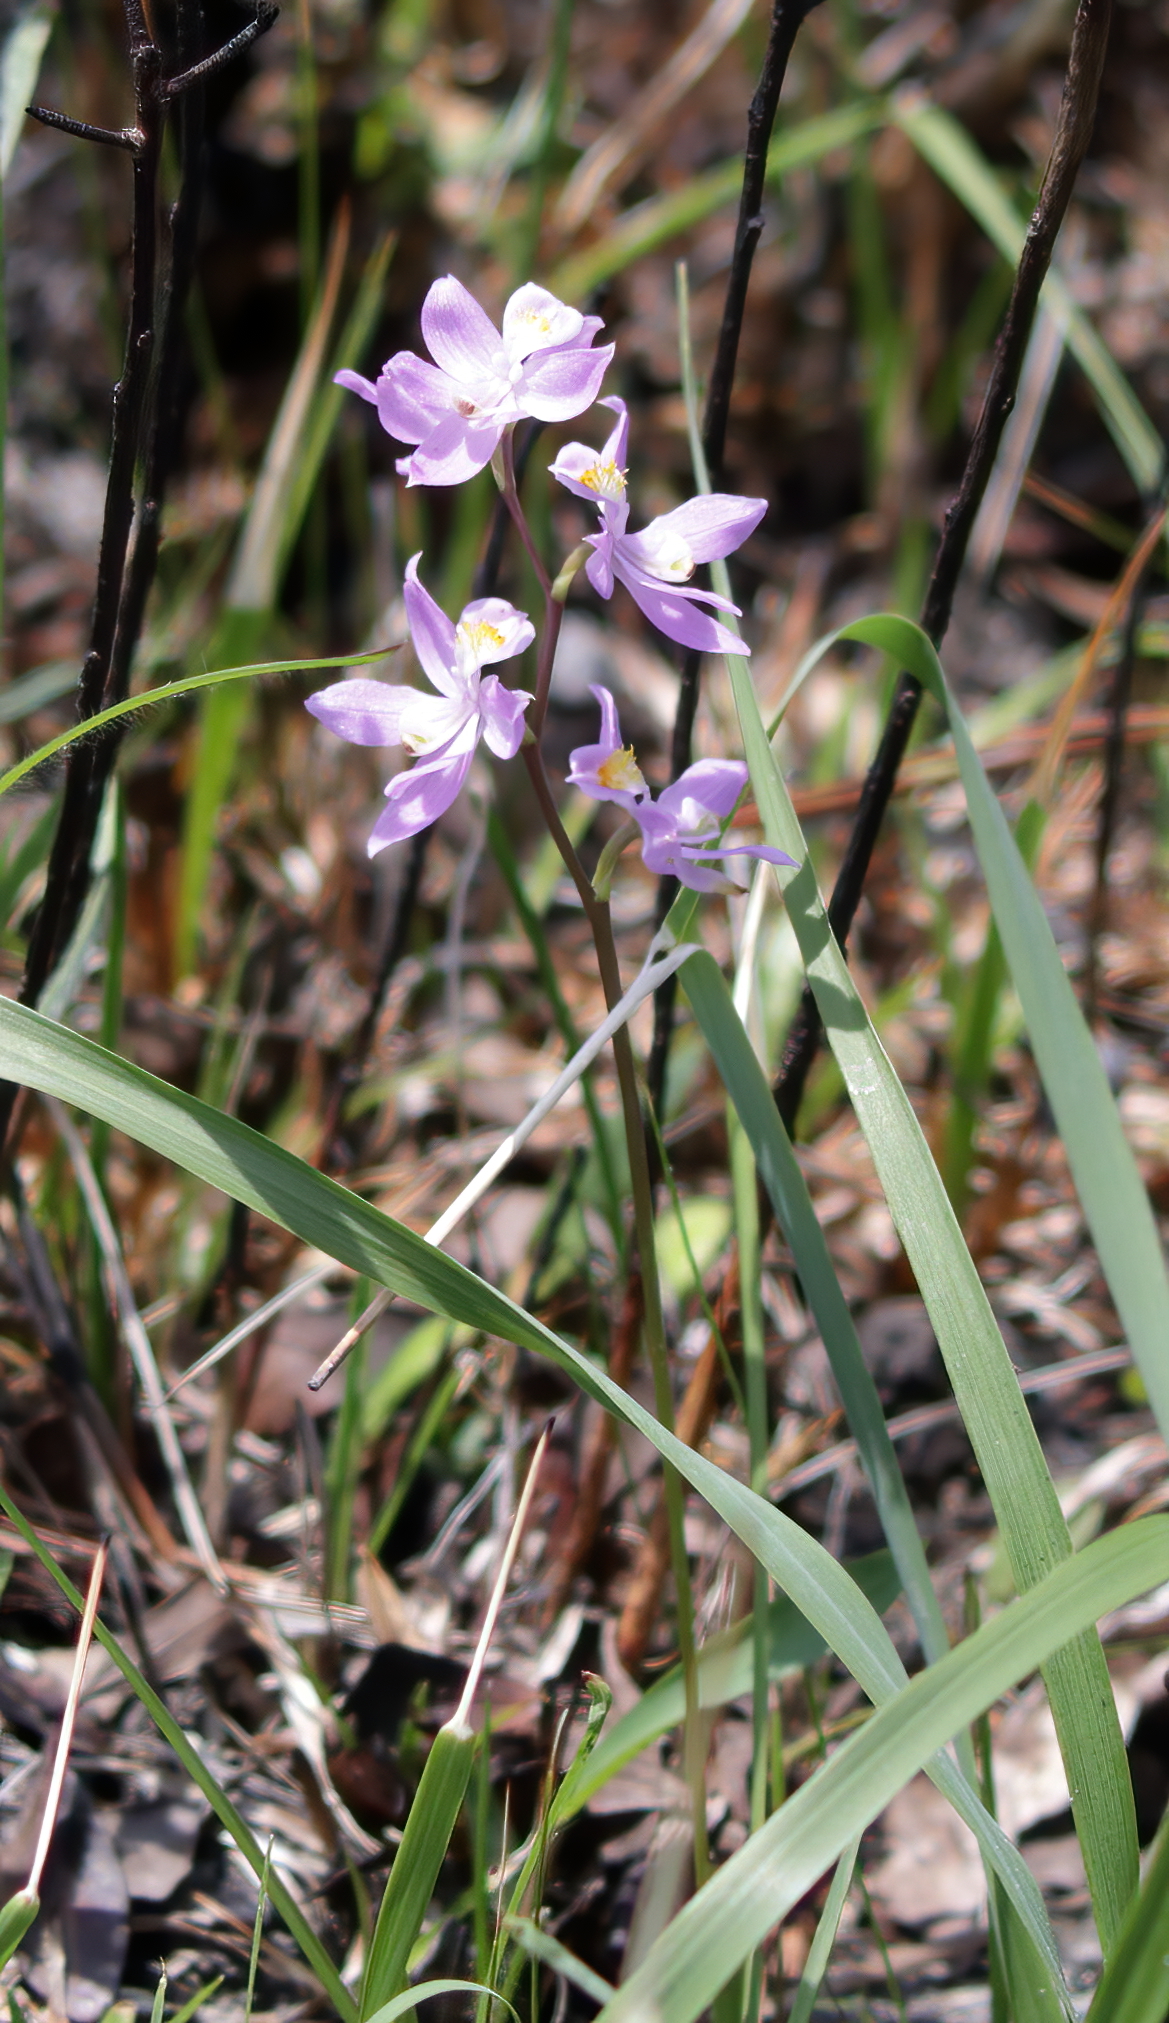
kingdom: Plantae
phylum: Tracheophyta
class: Liliopsida
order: Asparagales
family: Orchidaceae
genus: Calopogon
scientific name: Calopogon multiflorus
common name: Many-flowered grass-pink orchid
